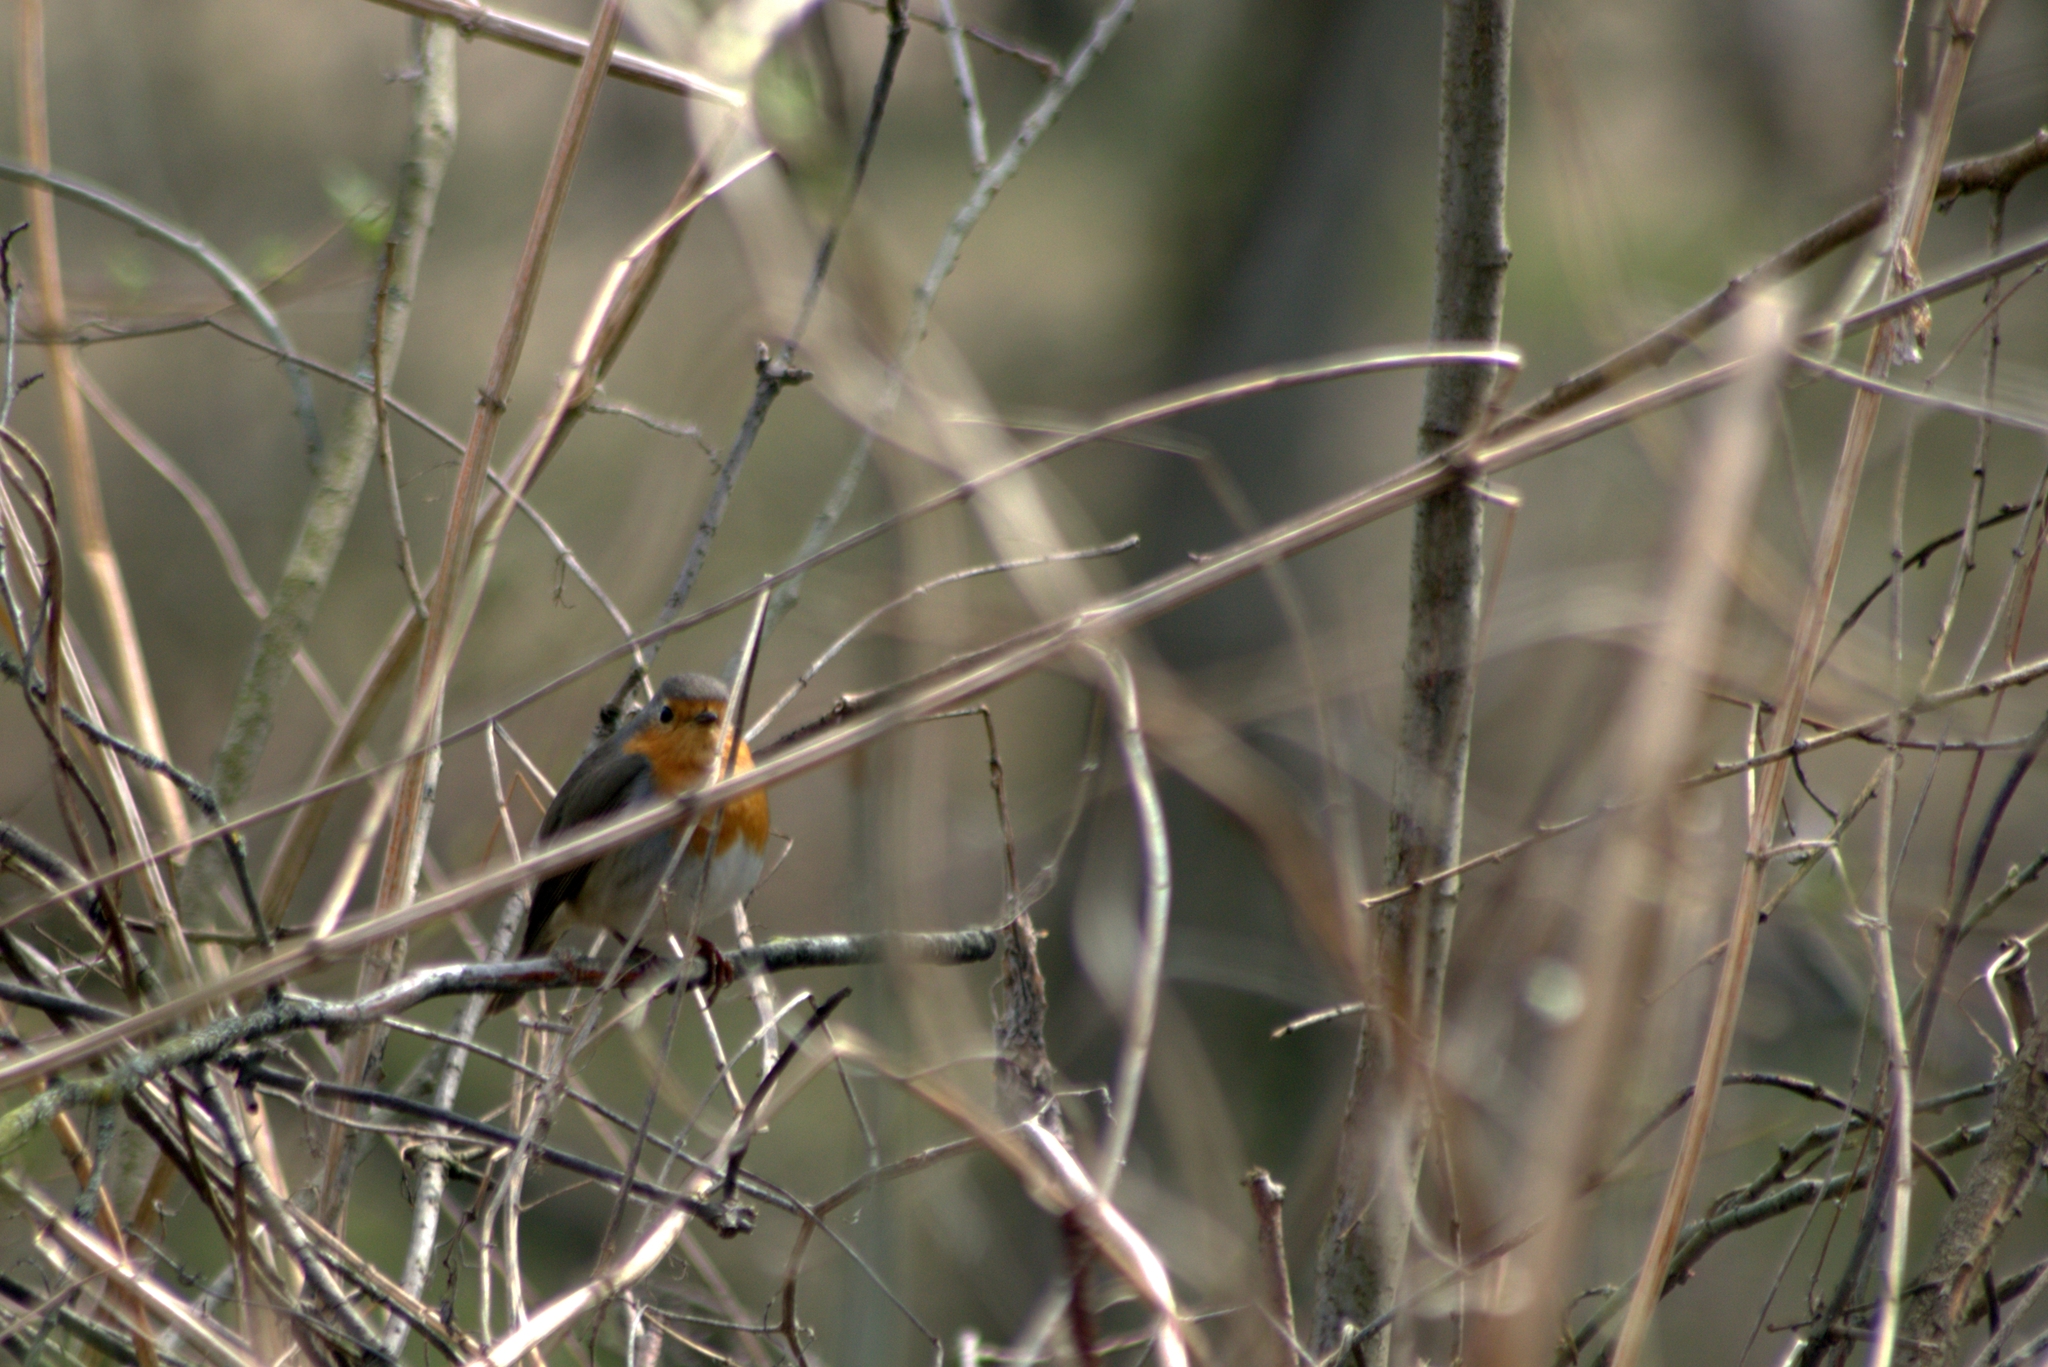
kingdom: Animalia
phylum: Chordata
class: Aves
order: Passeriformes
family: Muscicapidae
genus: Erithacus
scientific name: Erithacus rubecula
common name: European robin
